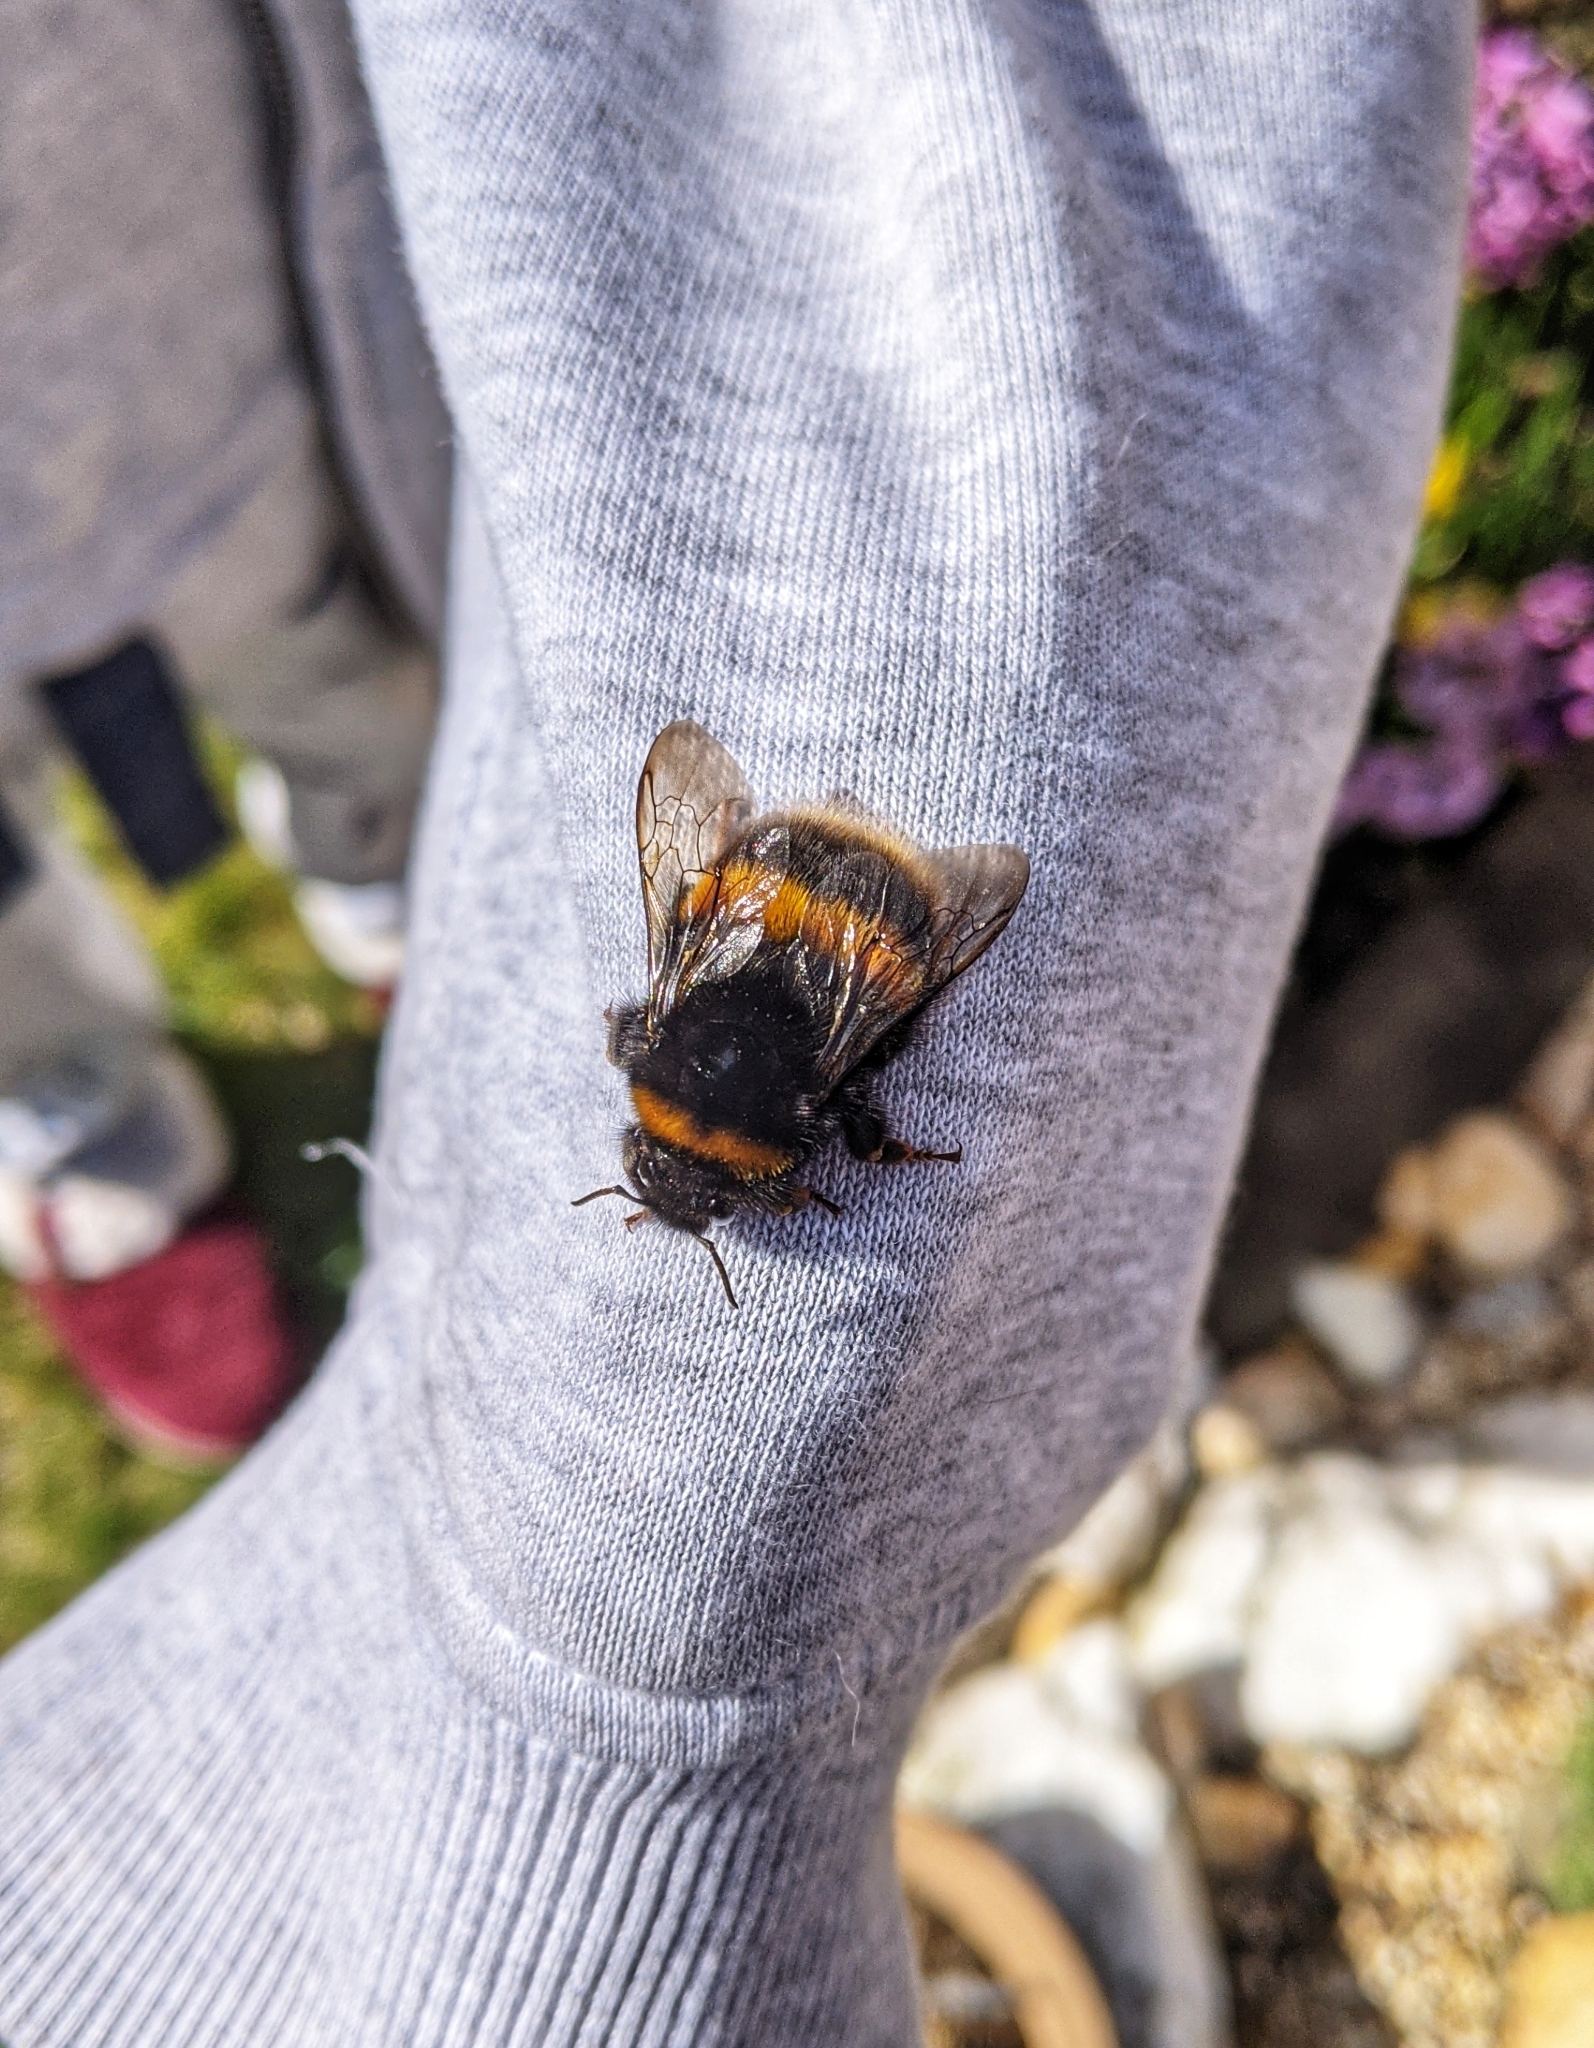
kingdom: Animalia
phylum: Arthropoda
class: Insecta
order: Hymenoptera
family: Apidae
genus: Bombus
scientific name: Bombus terrestris
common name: Buff-tailed bumblebee
